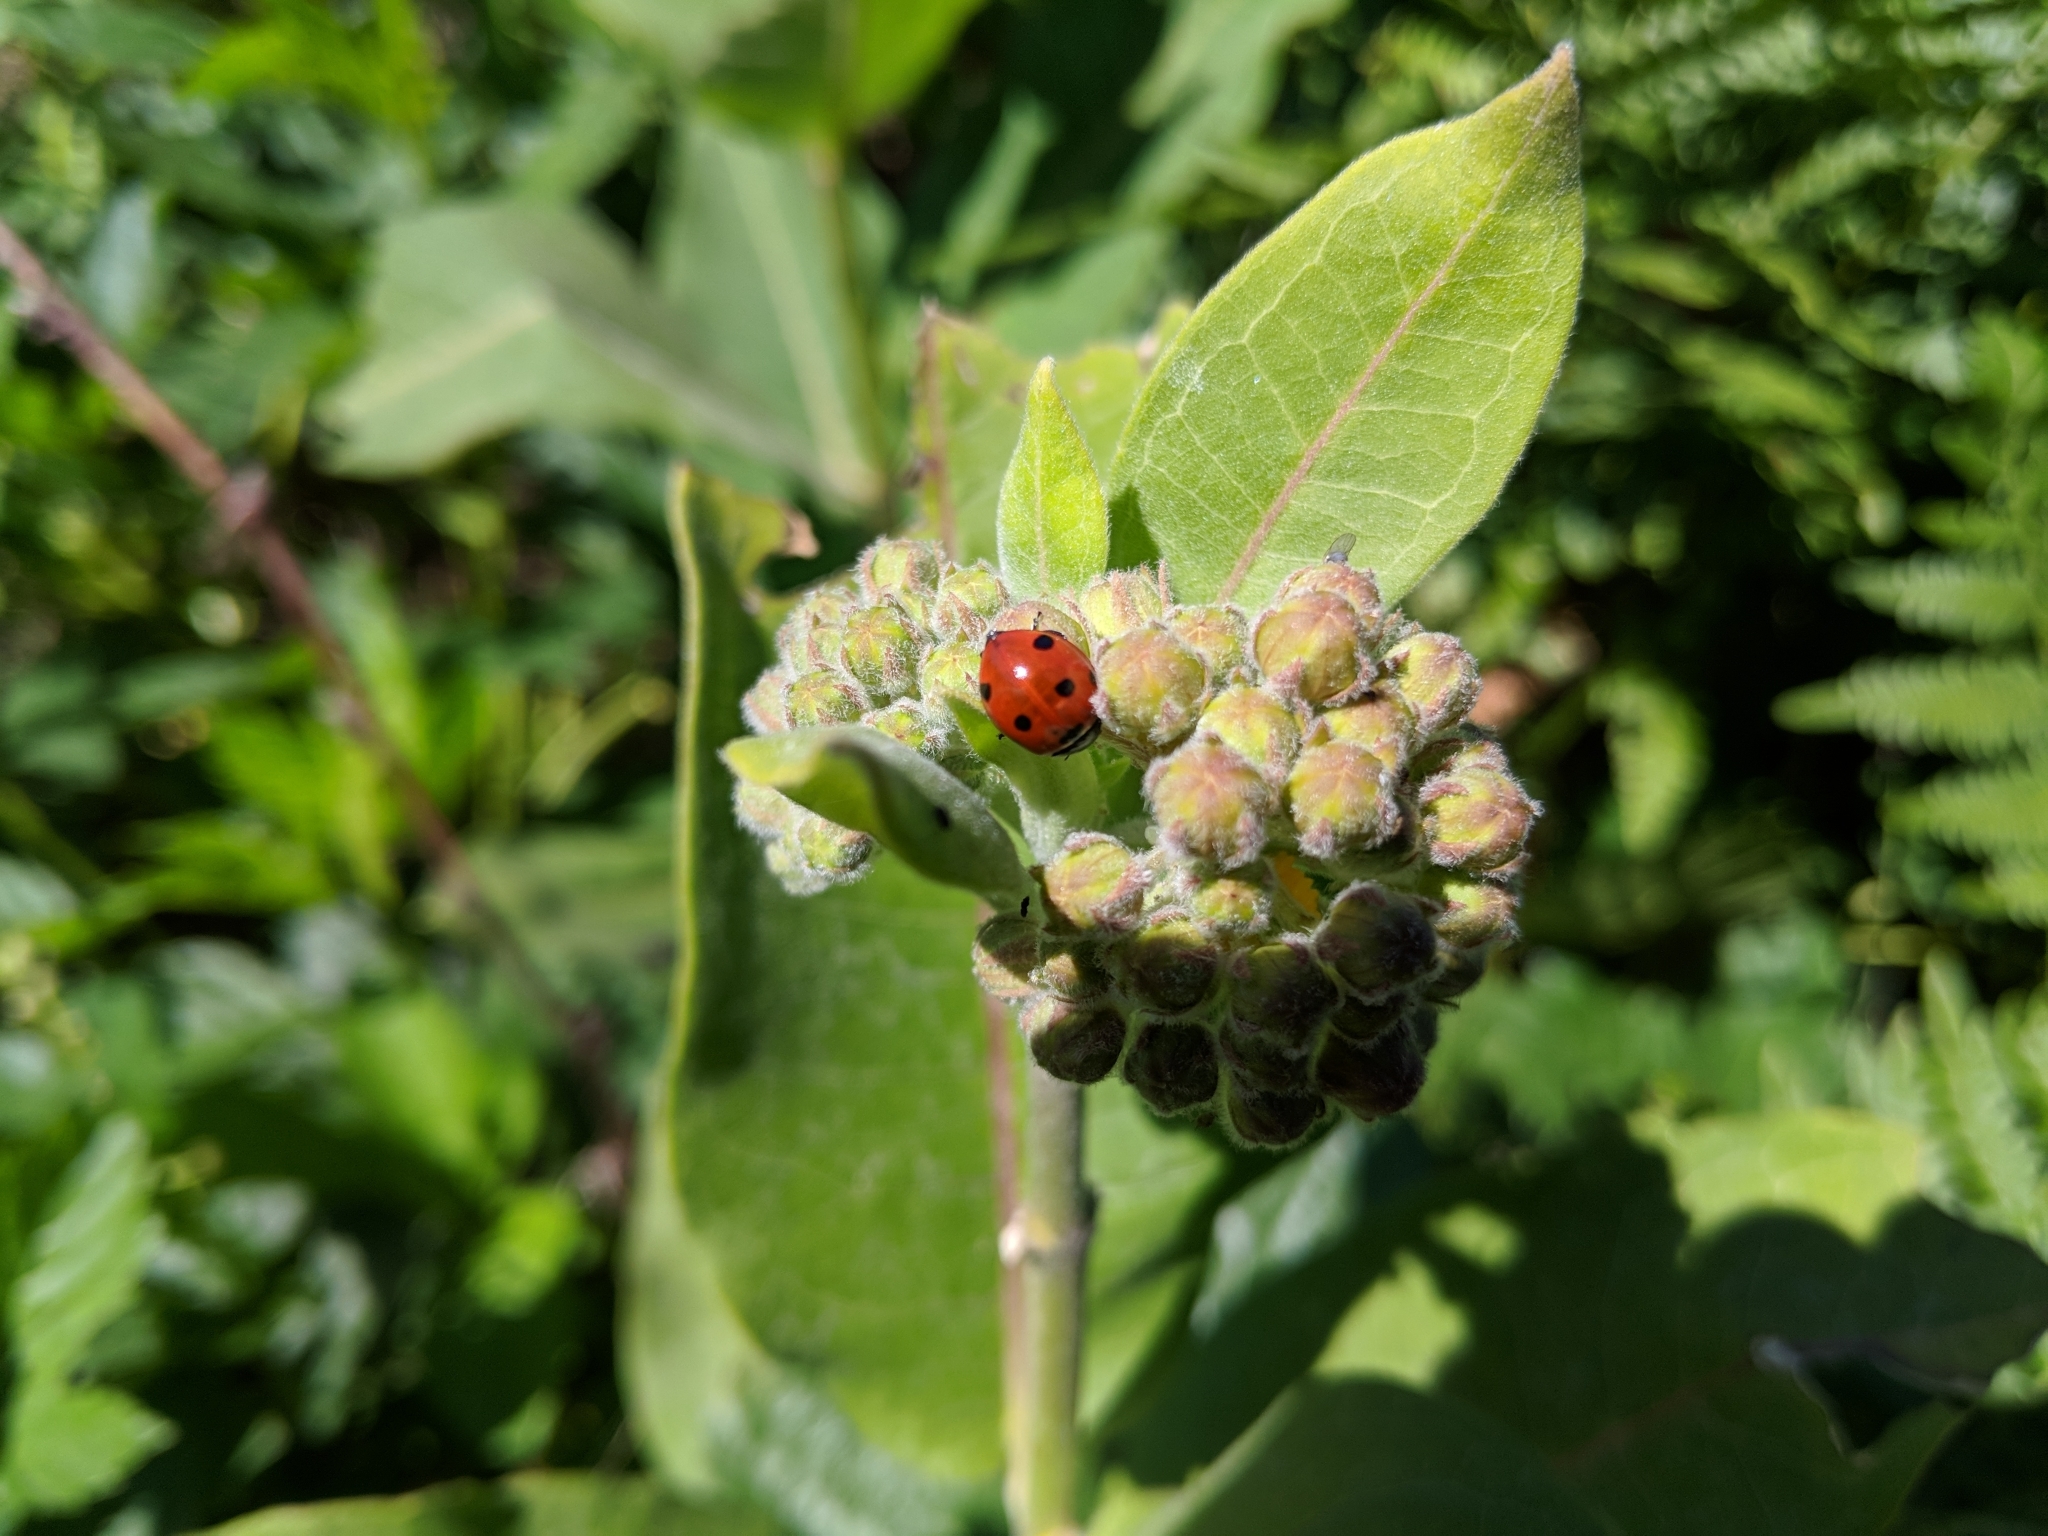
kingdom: Animalia
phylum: Arthropoda
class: Insecta
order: Coleoptera
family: Coccinellidae
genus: Coccinella
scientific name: Coccinella septempunctata
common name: Sevenspotted lady beetle
